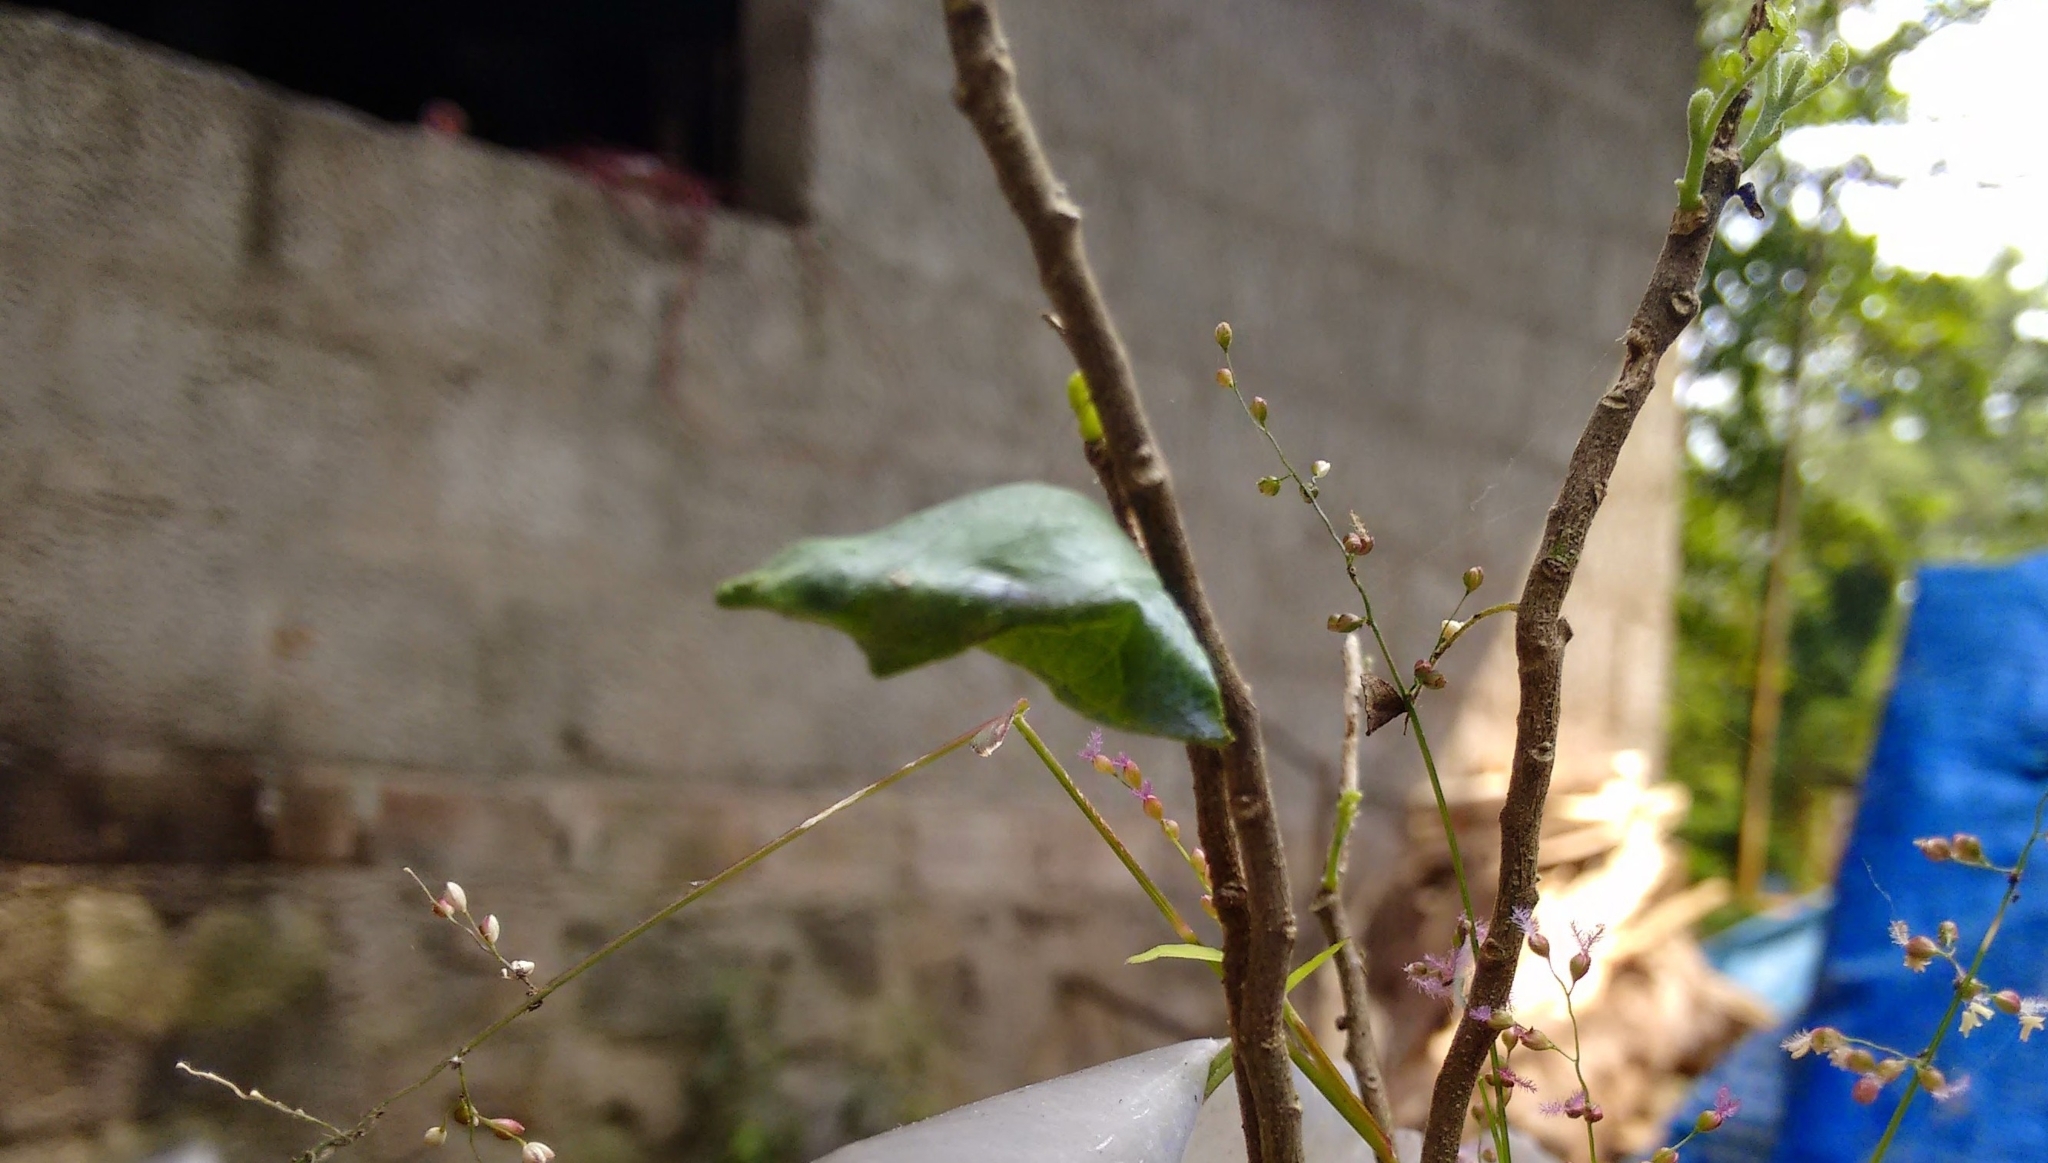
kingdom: Animalia
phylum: Arthropoda
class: Insecta
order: Lepidoptera
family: Papilionidae
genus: Papilio
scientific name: Papilio polytes
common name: Common mormon
